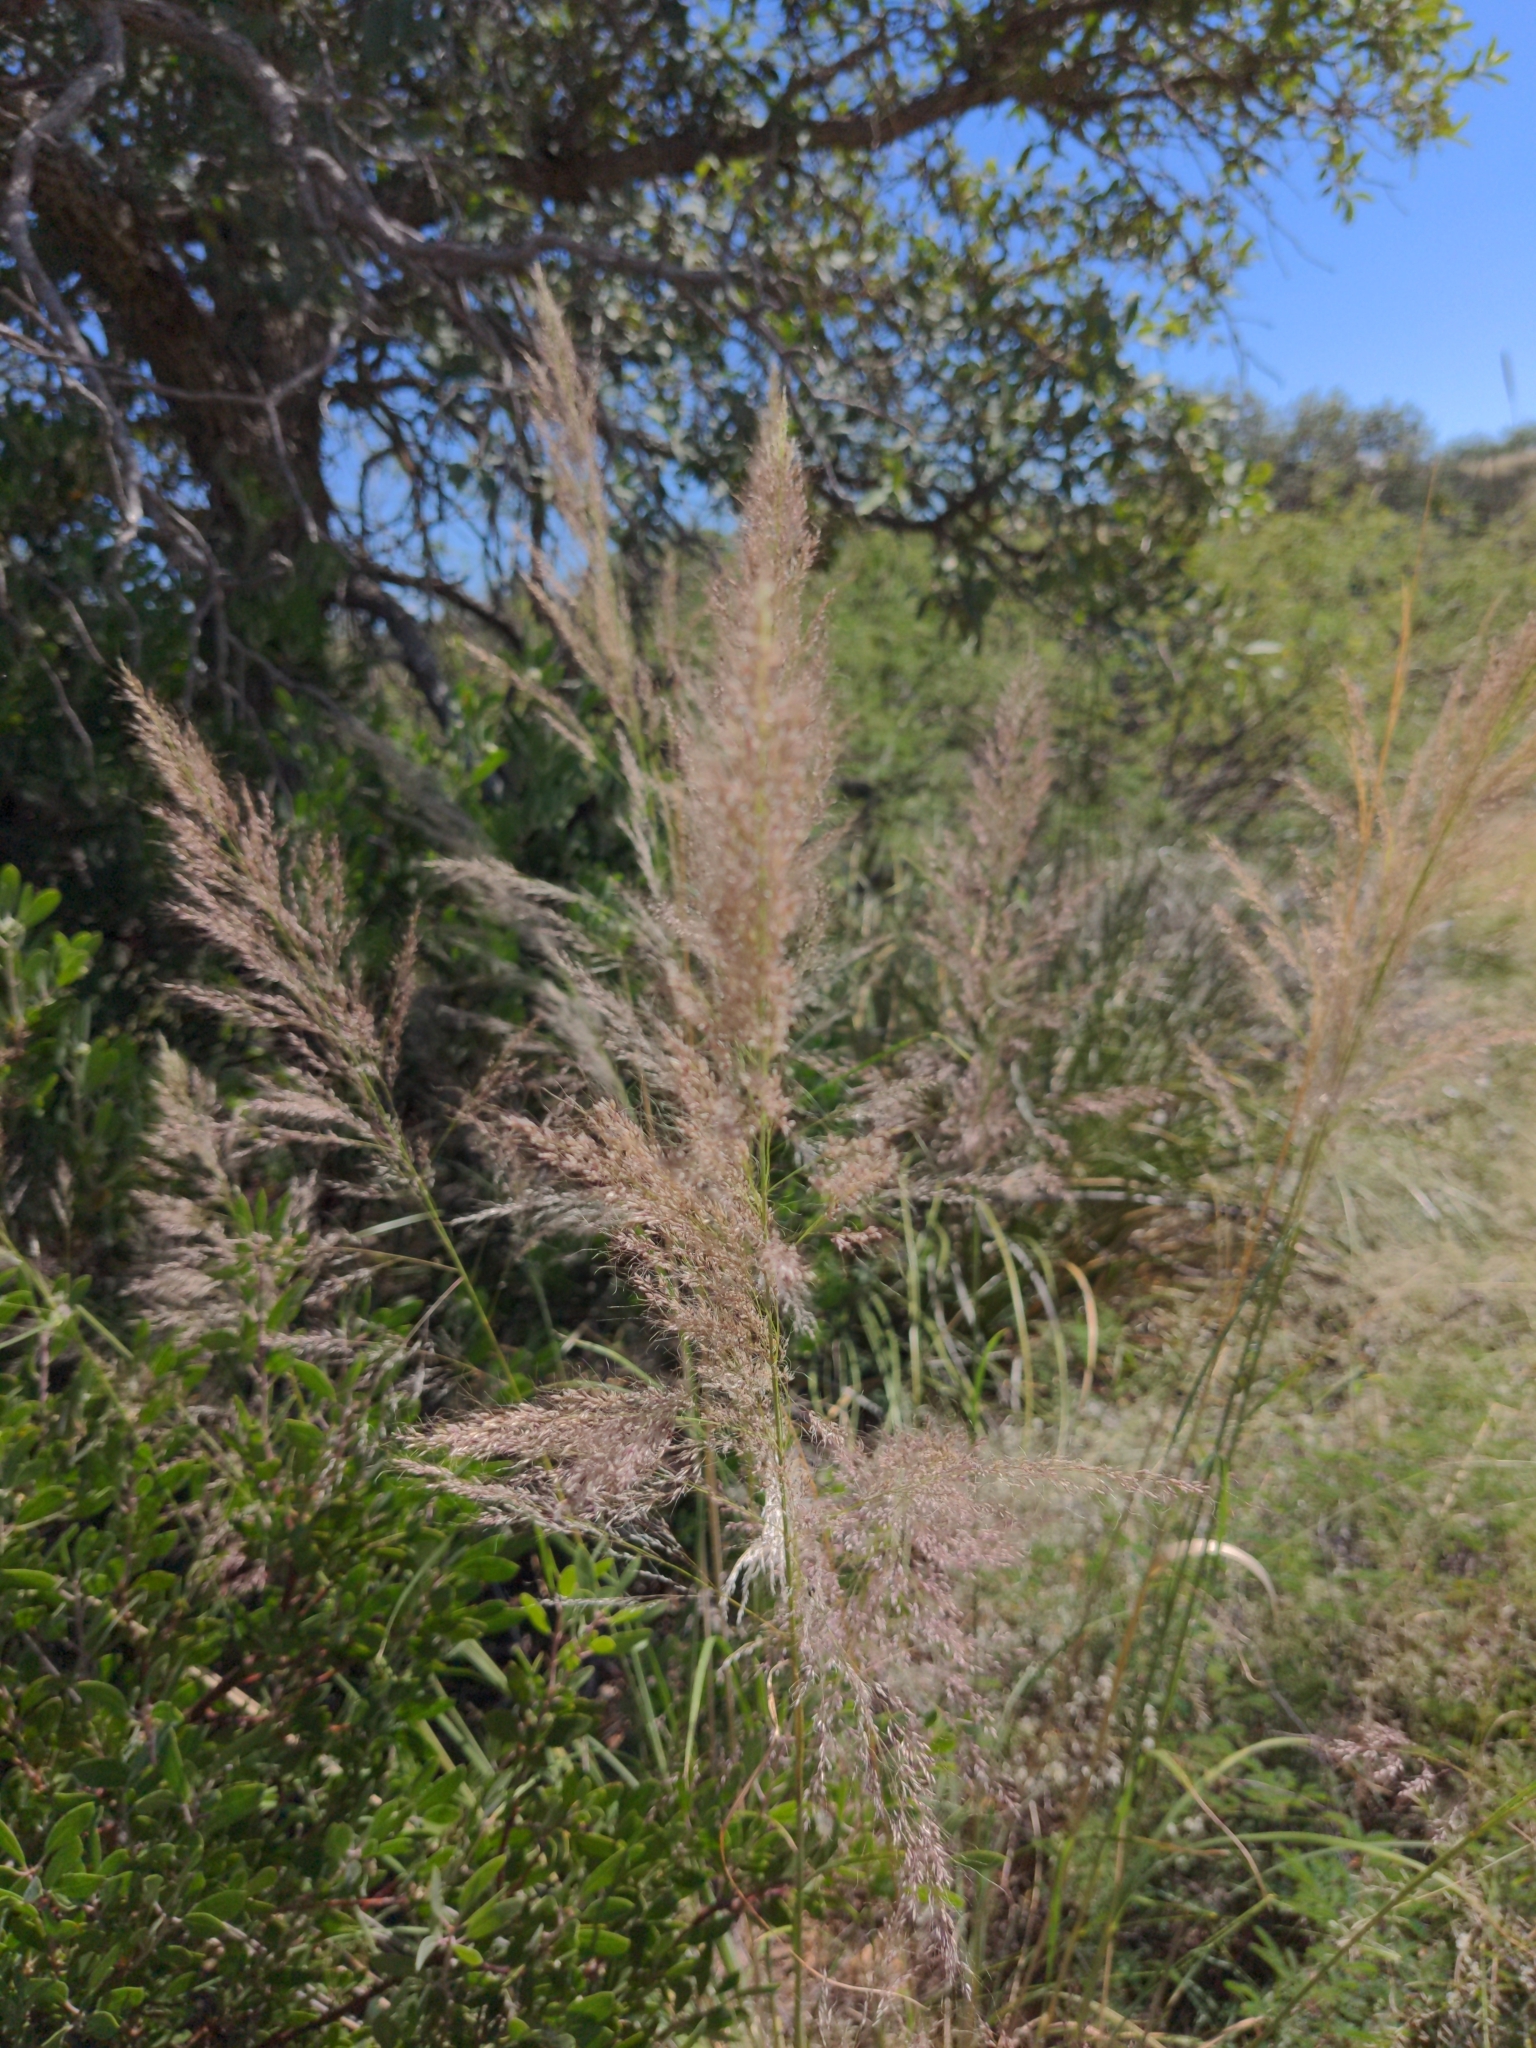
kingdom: Plantae
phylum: Tracheophyta
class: Liliopsida
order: Poales
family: Poaceae
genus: Muhlenbergia
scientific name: Muhlenbergia emersleyi
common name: Bull grass
